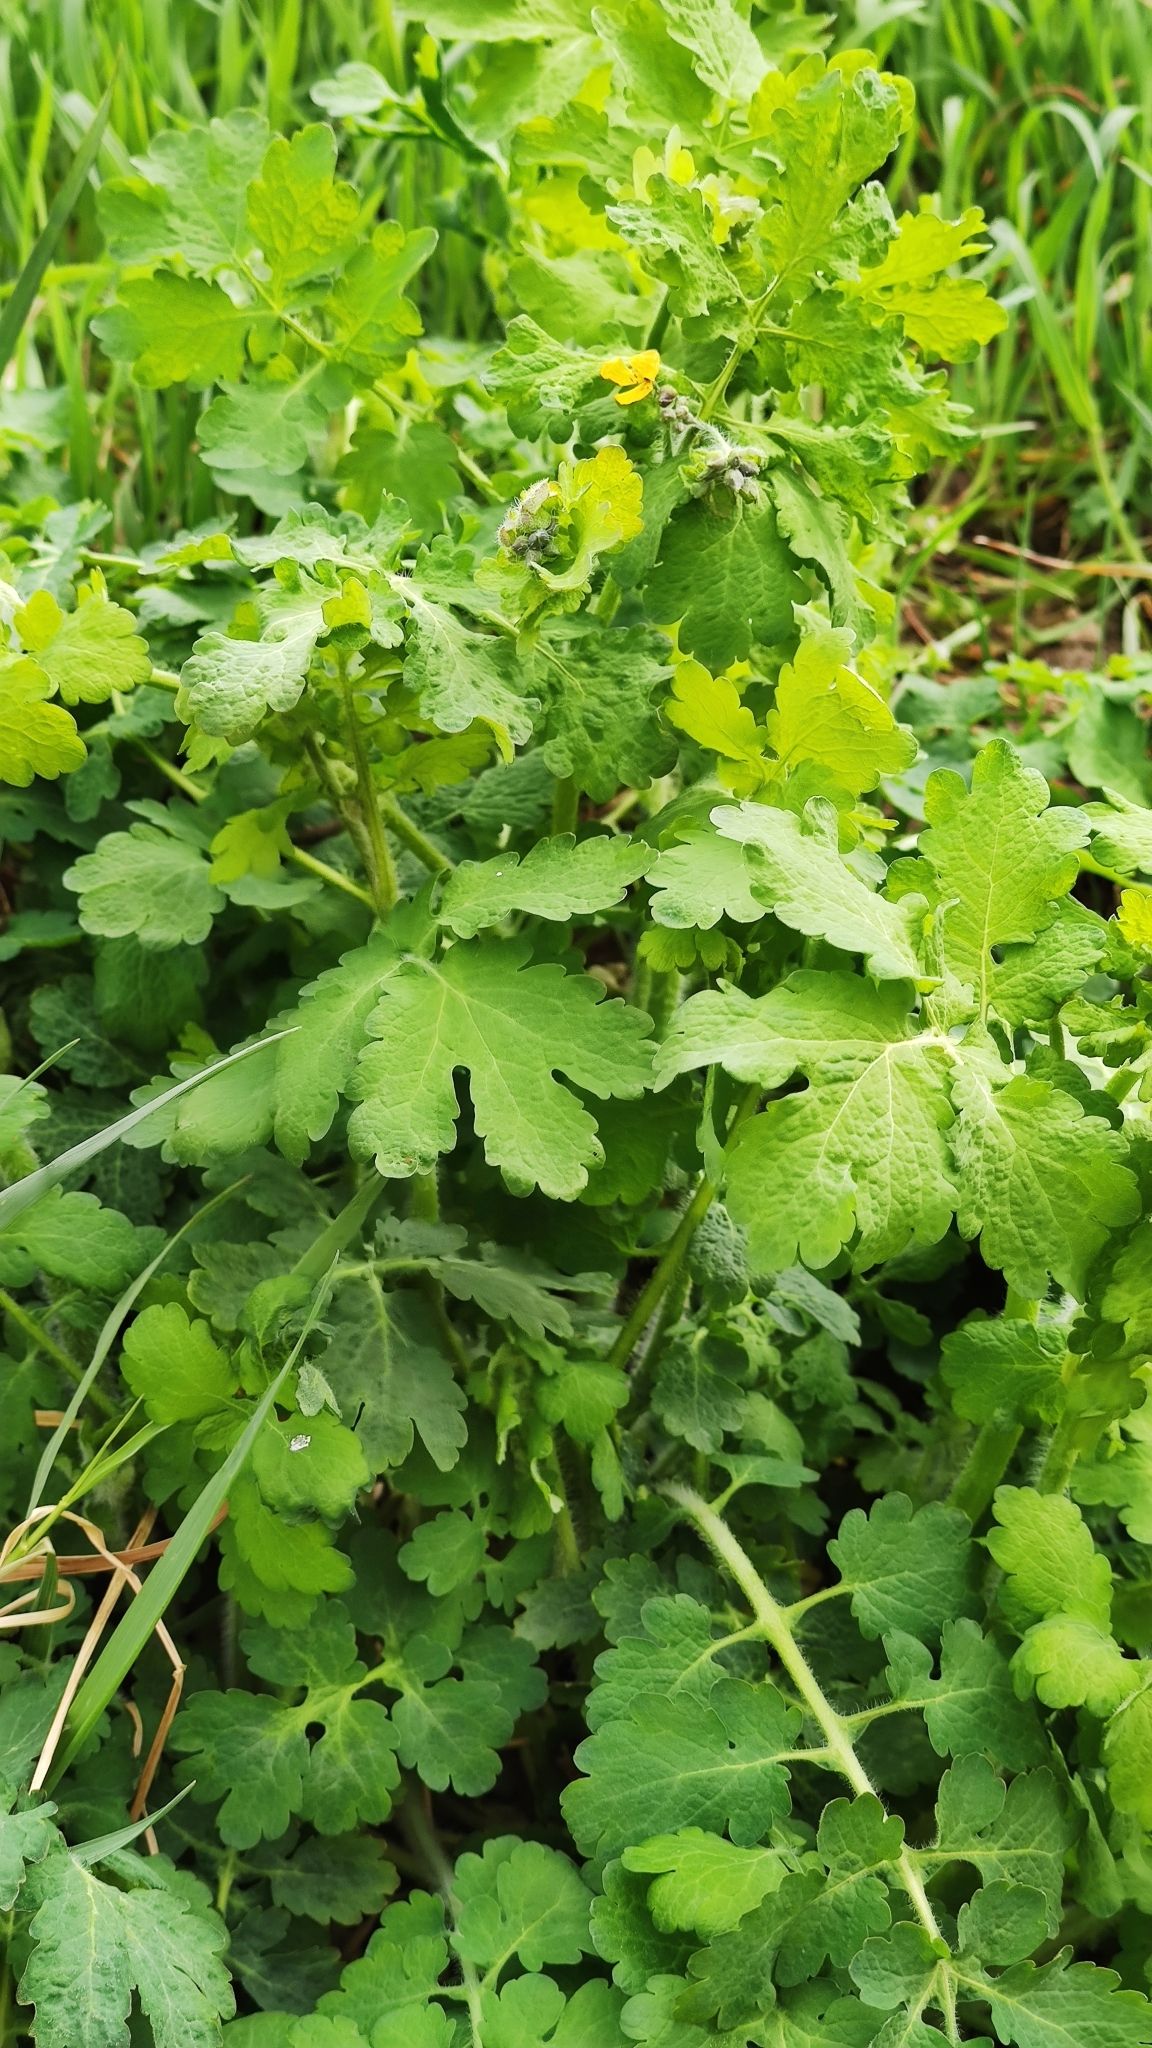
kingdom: Plantae
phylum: Tracheophyta
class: Magnoliopsida
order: Ranunculales
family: Papaveraceae
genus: Chelidonium
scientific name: Chelidonium majus
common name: Greater celandine
